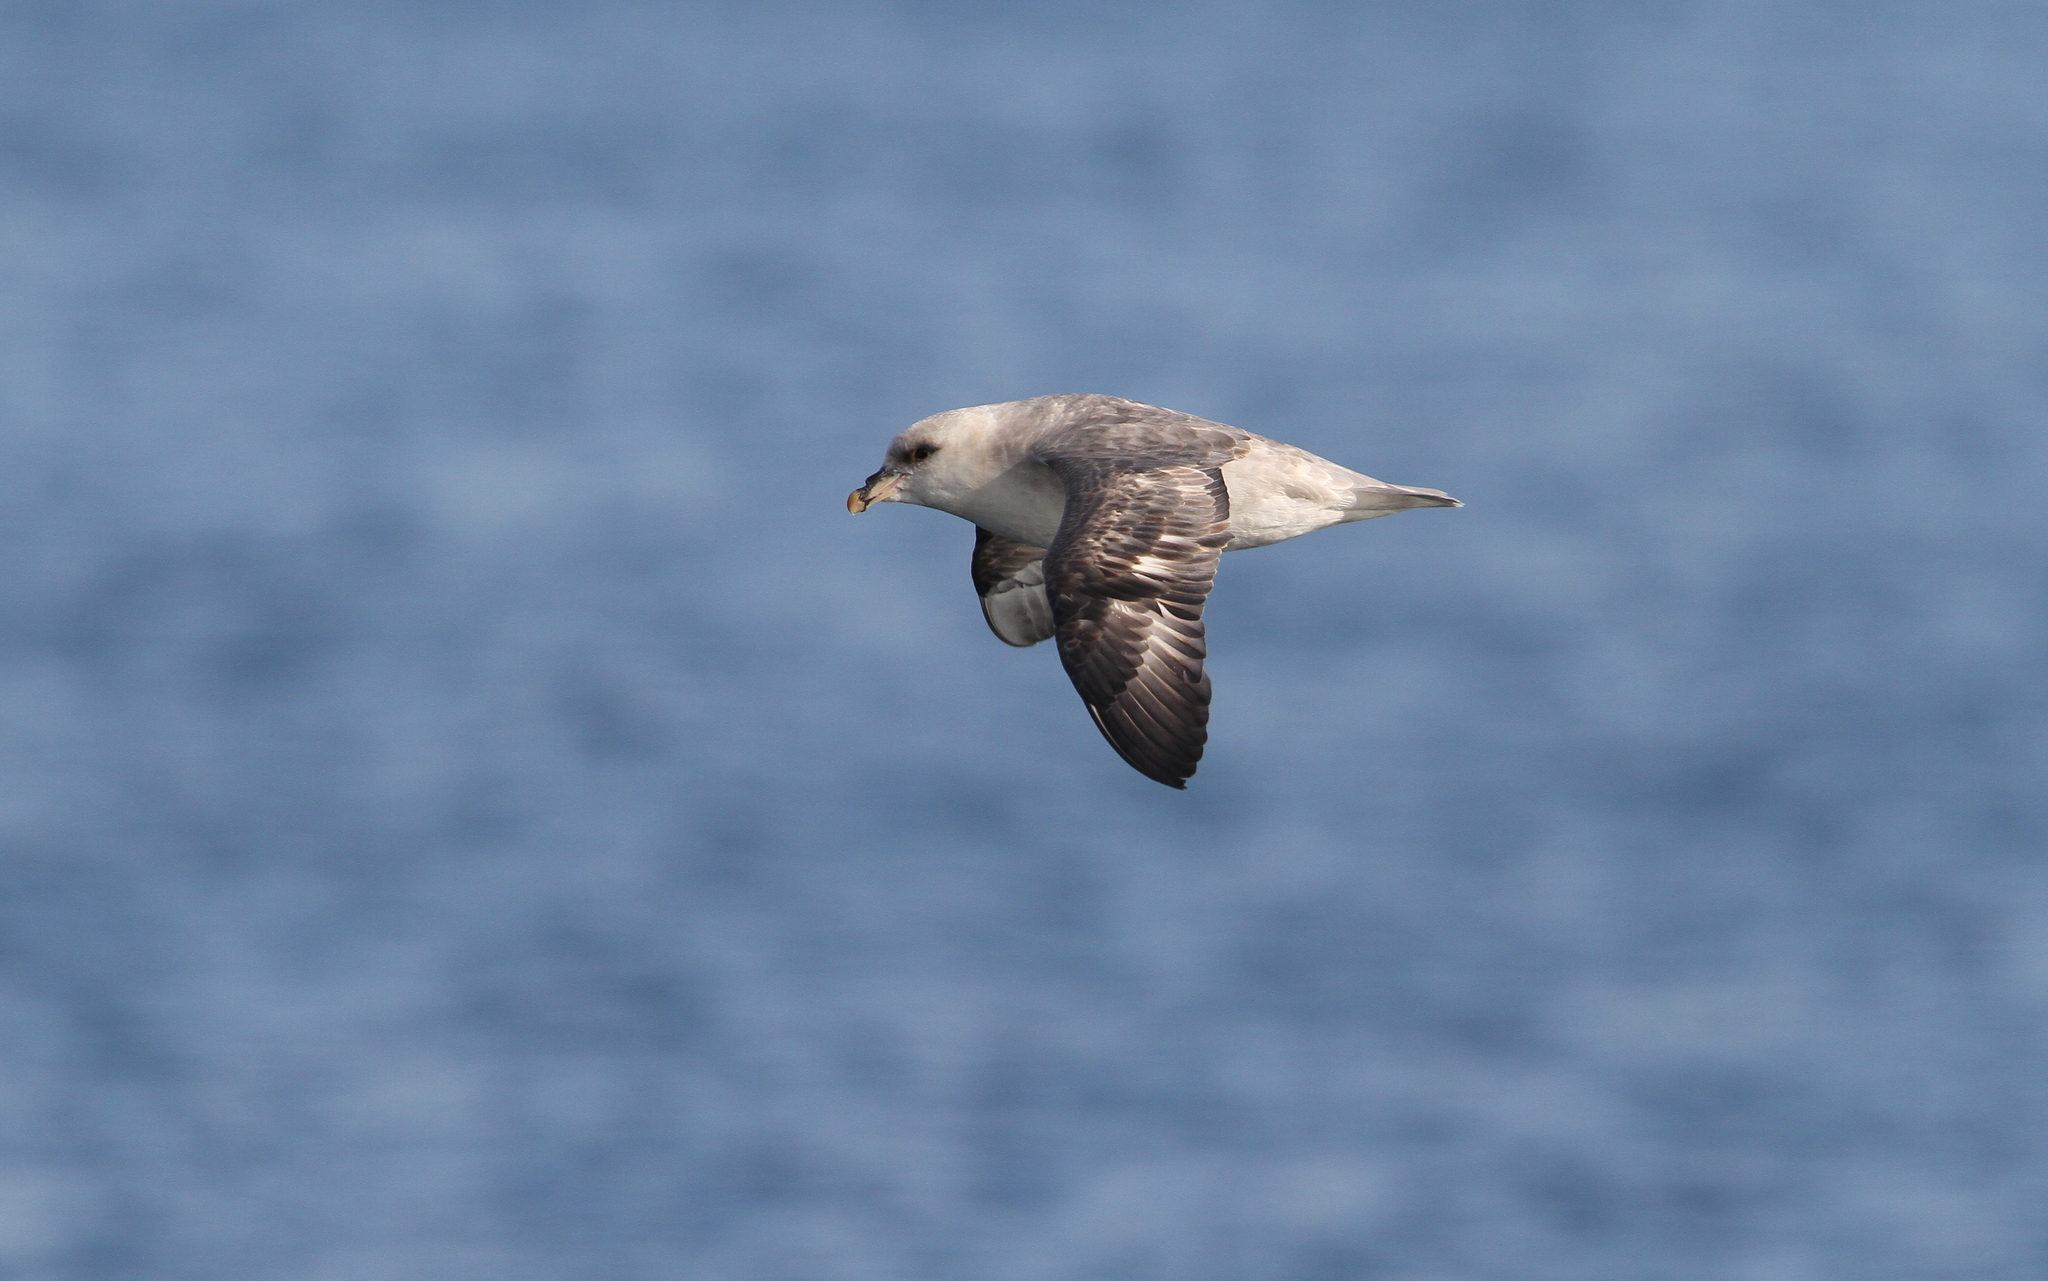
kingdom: Animalia
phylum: Chordata
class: Aves
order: Procellariiformes
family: Procellariidae
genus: Fulmarus
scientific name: Fulmarus glacialis
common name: Northern fulmar
